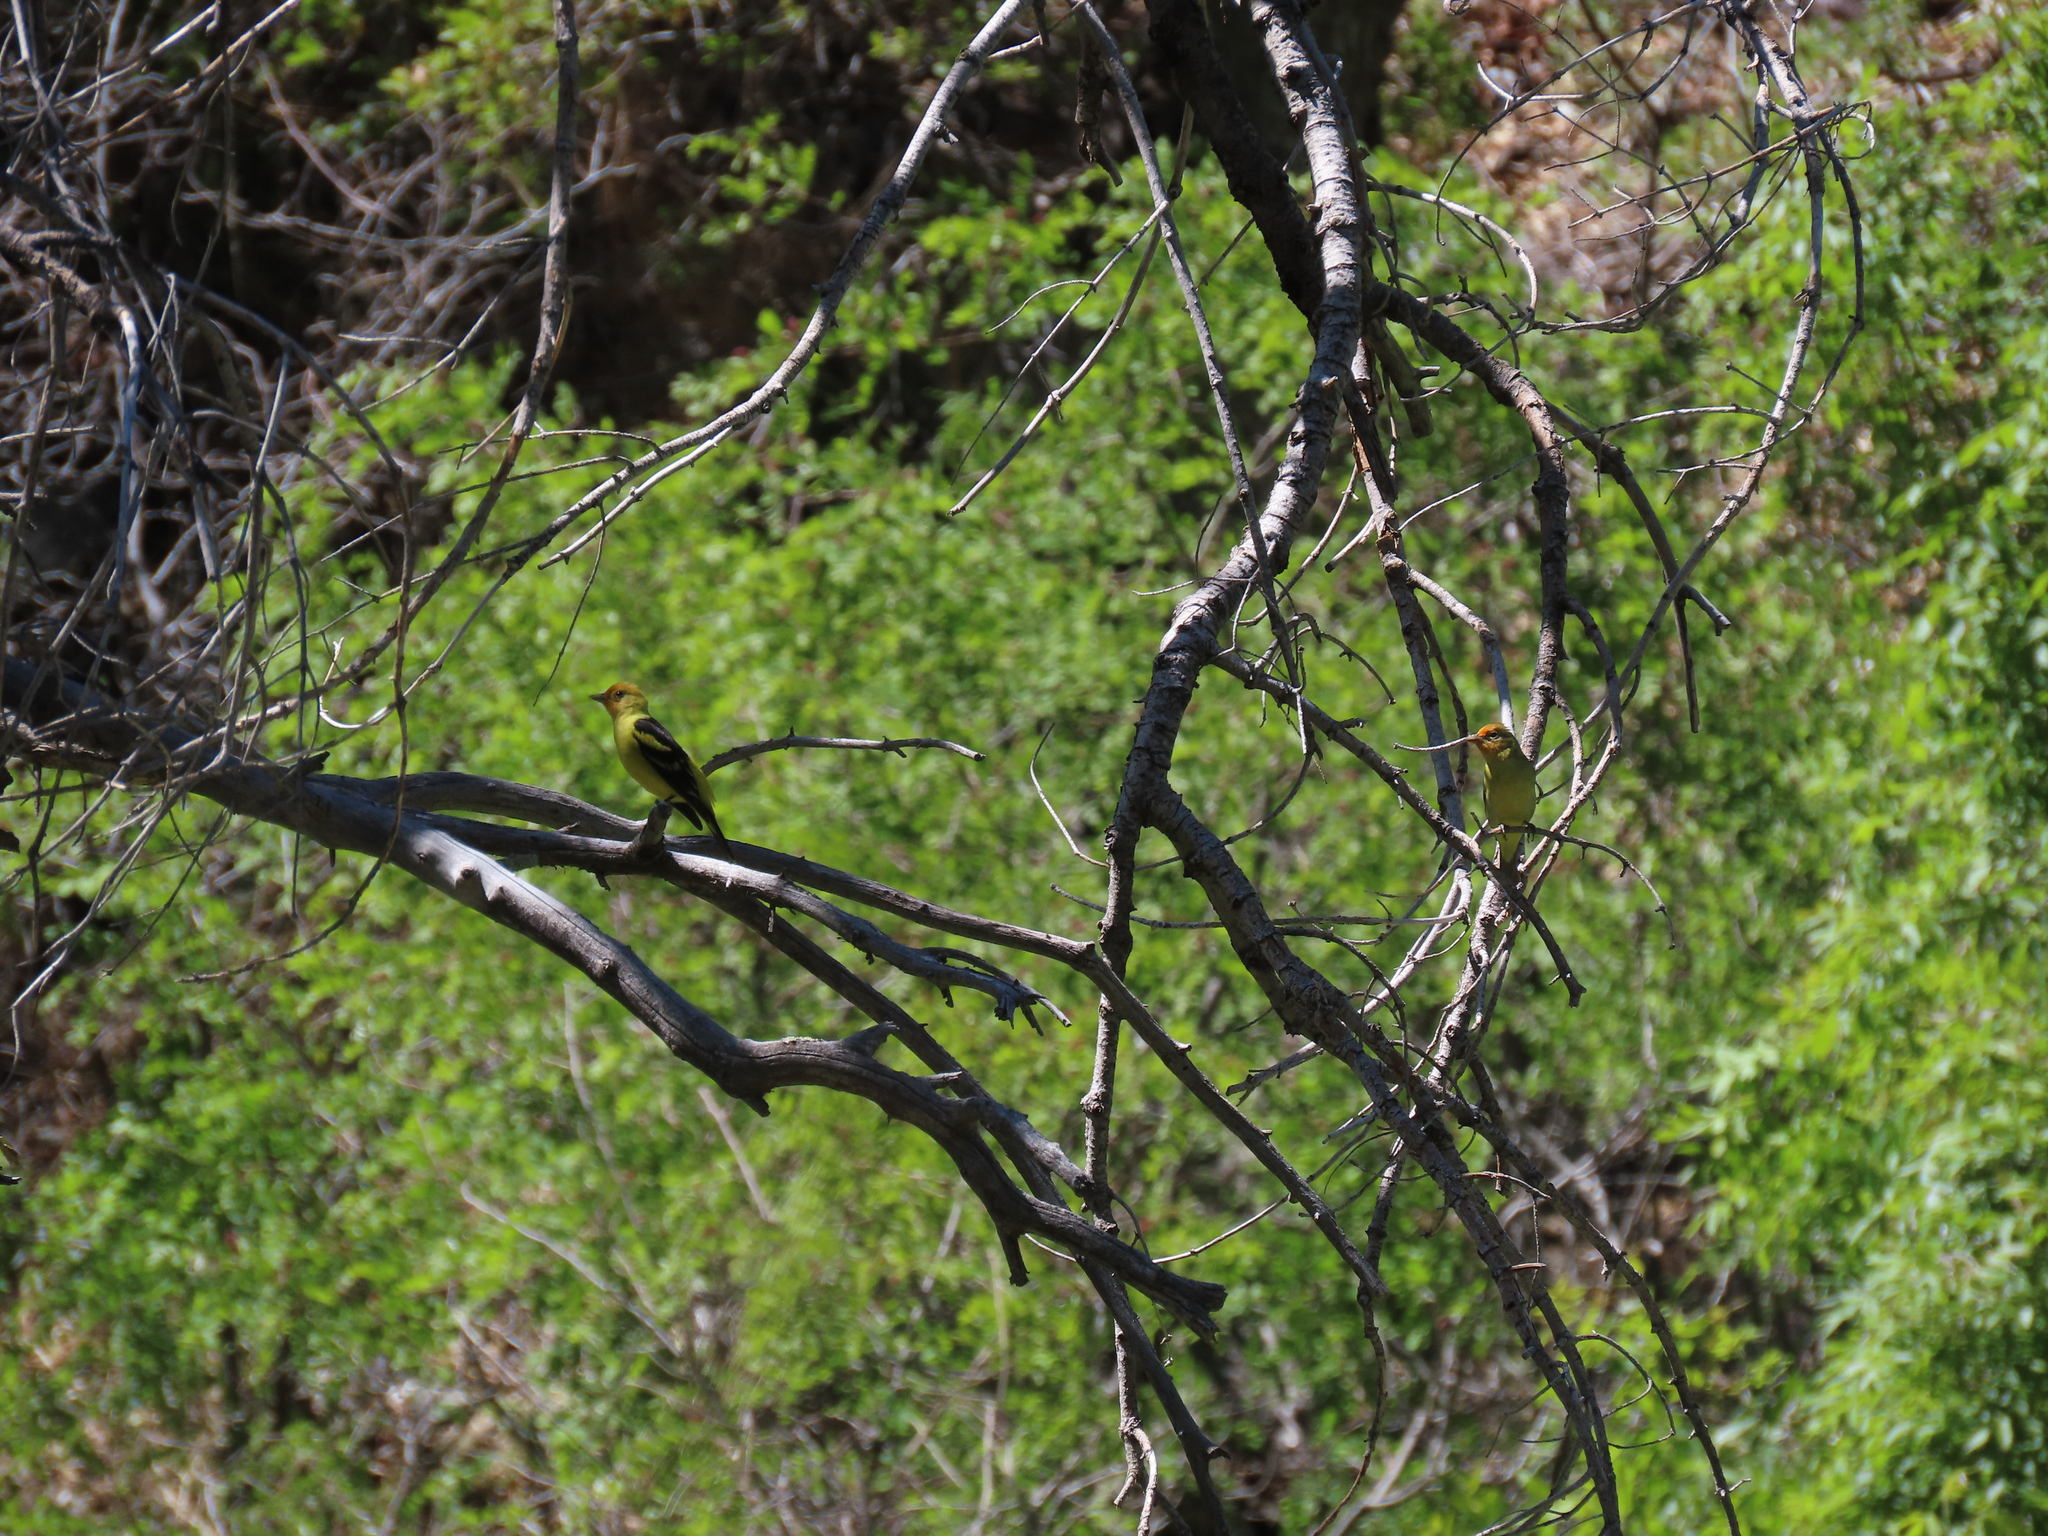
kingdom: Animalia
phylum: Chordata
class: Aves
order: Passeriformes
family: Cardinalidae
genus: Piranga
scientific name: Piranga ludoviciana
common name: Western tanager
